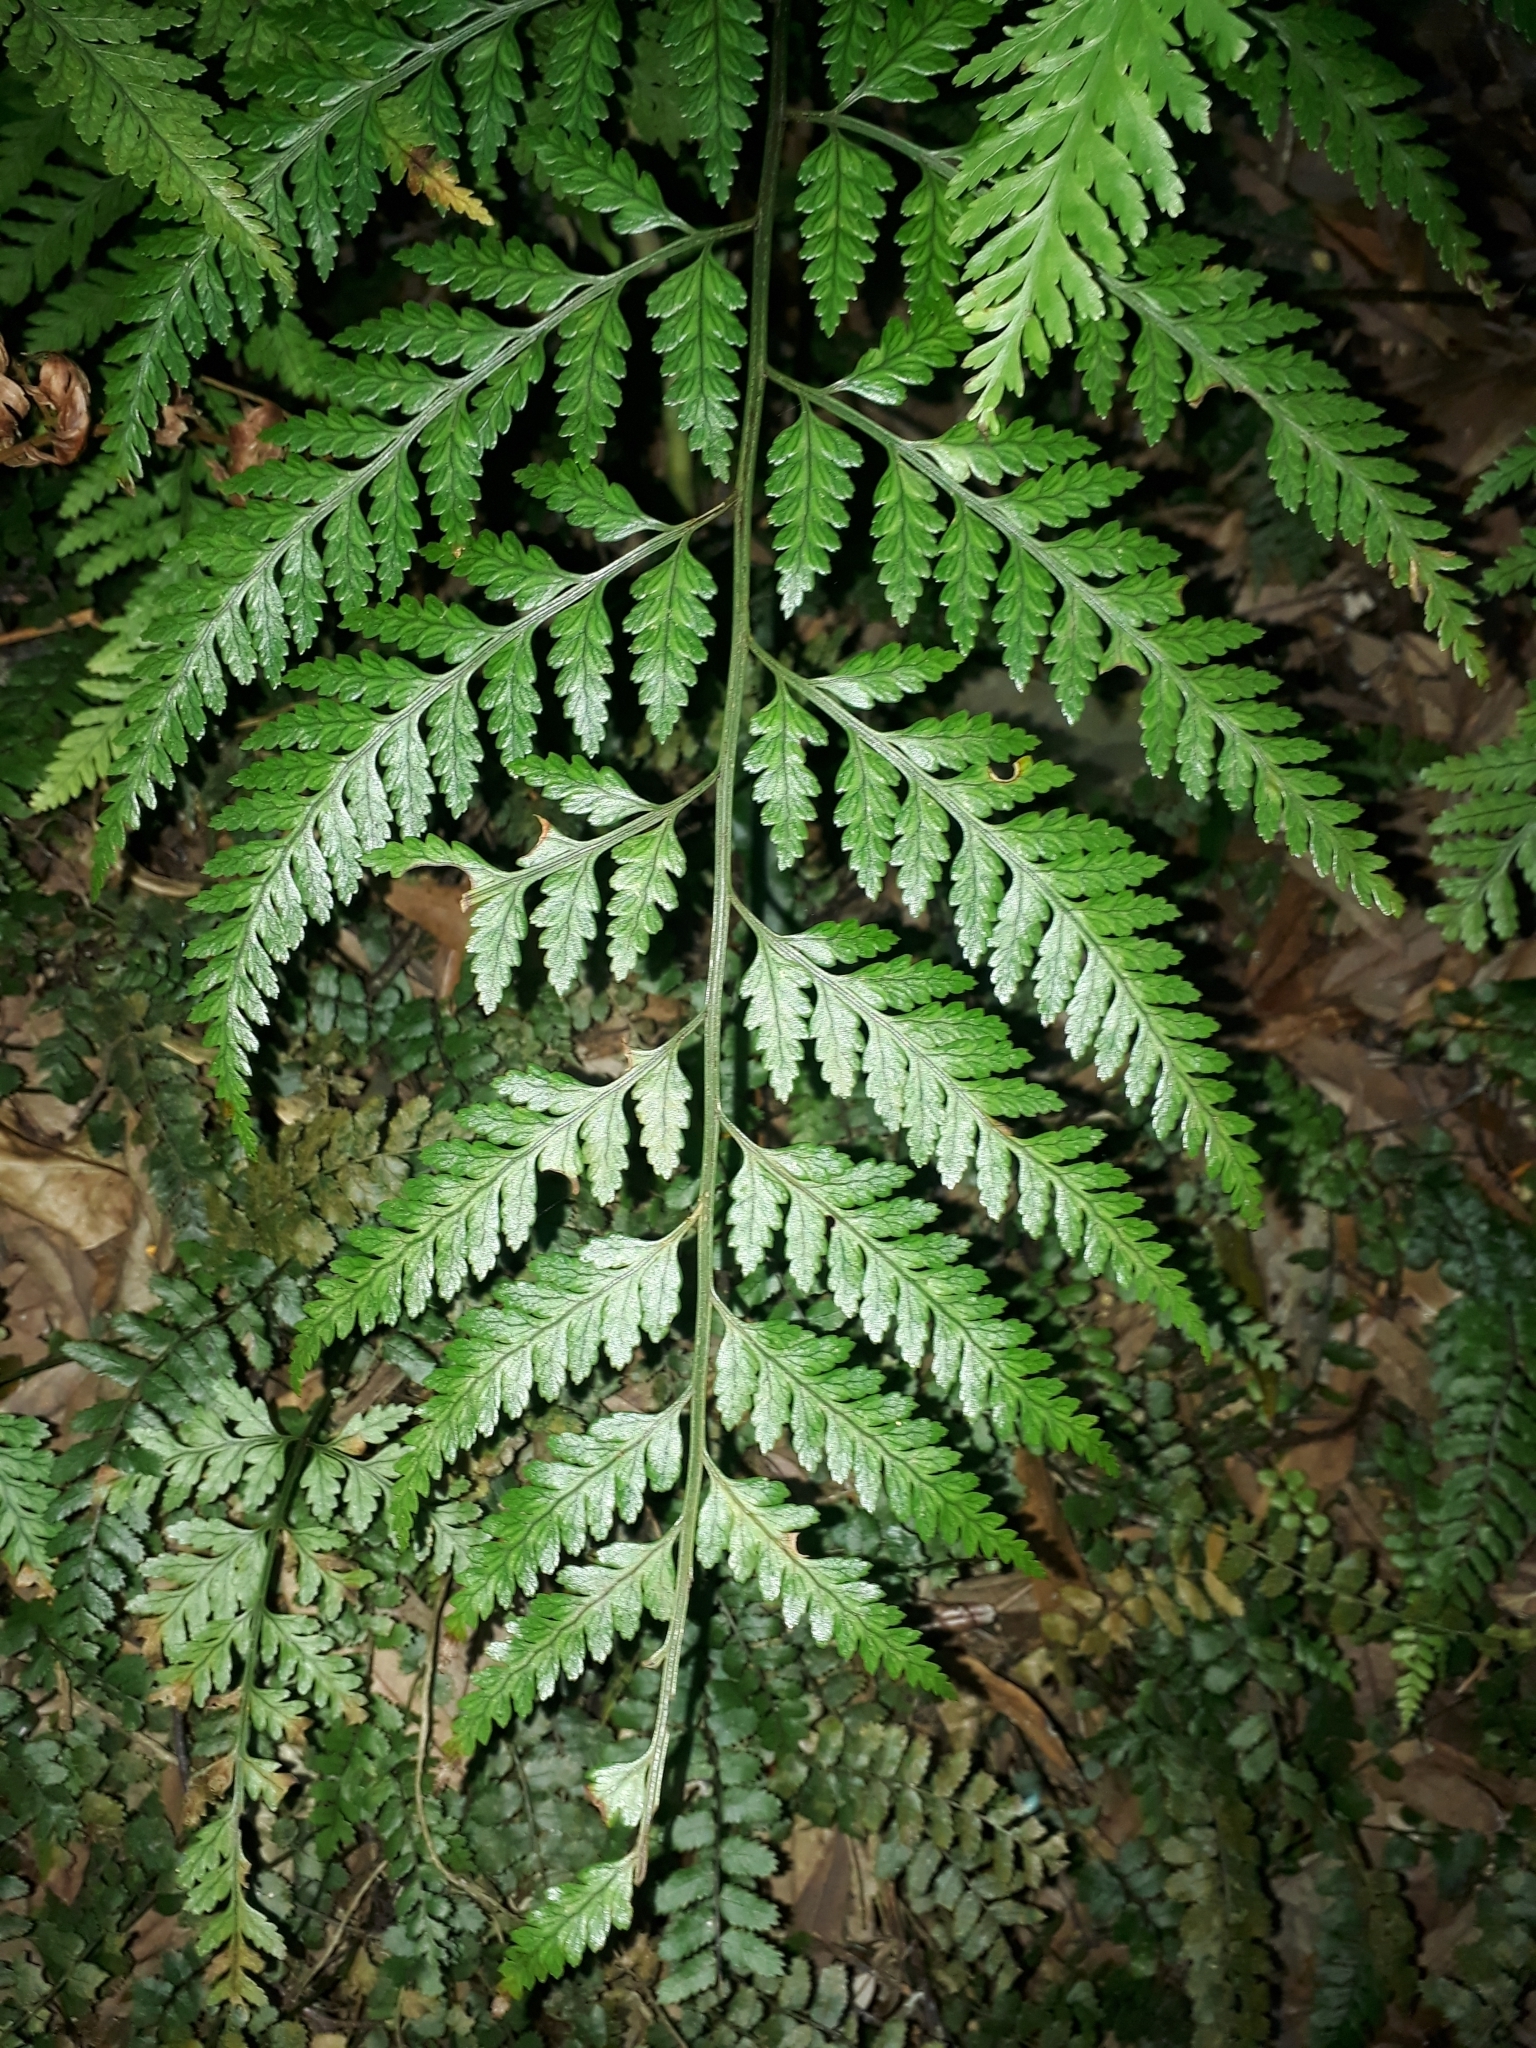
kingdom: Plantae
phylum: Tracheophyta
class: Polypodiopsida
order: Polypodiales
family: Dryopteridaceae
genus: Rumohra
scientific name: Rumohra adiantiformis
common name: Leather fern
